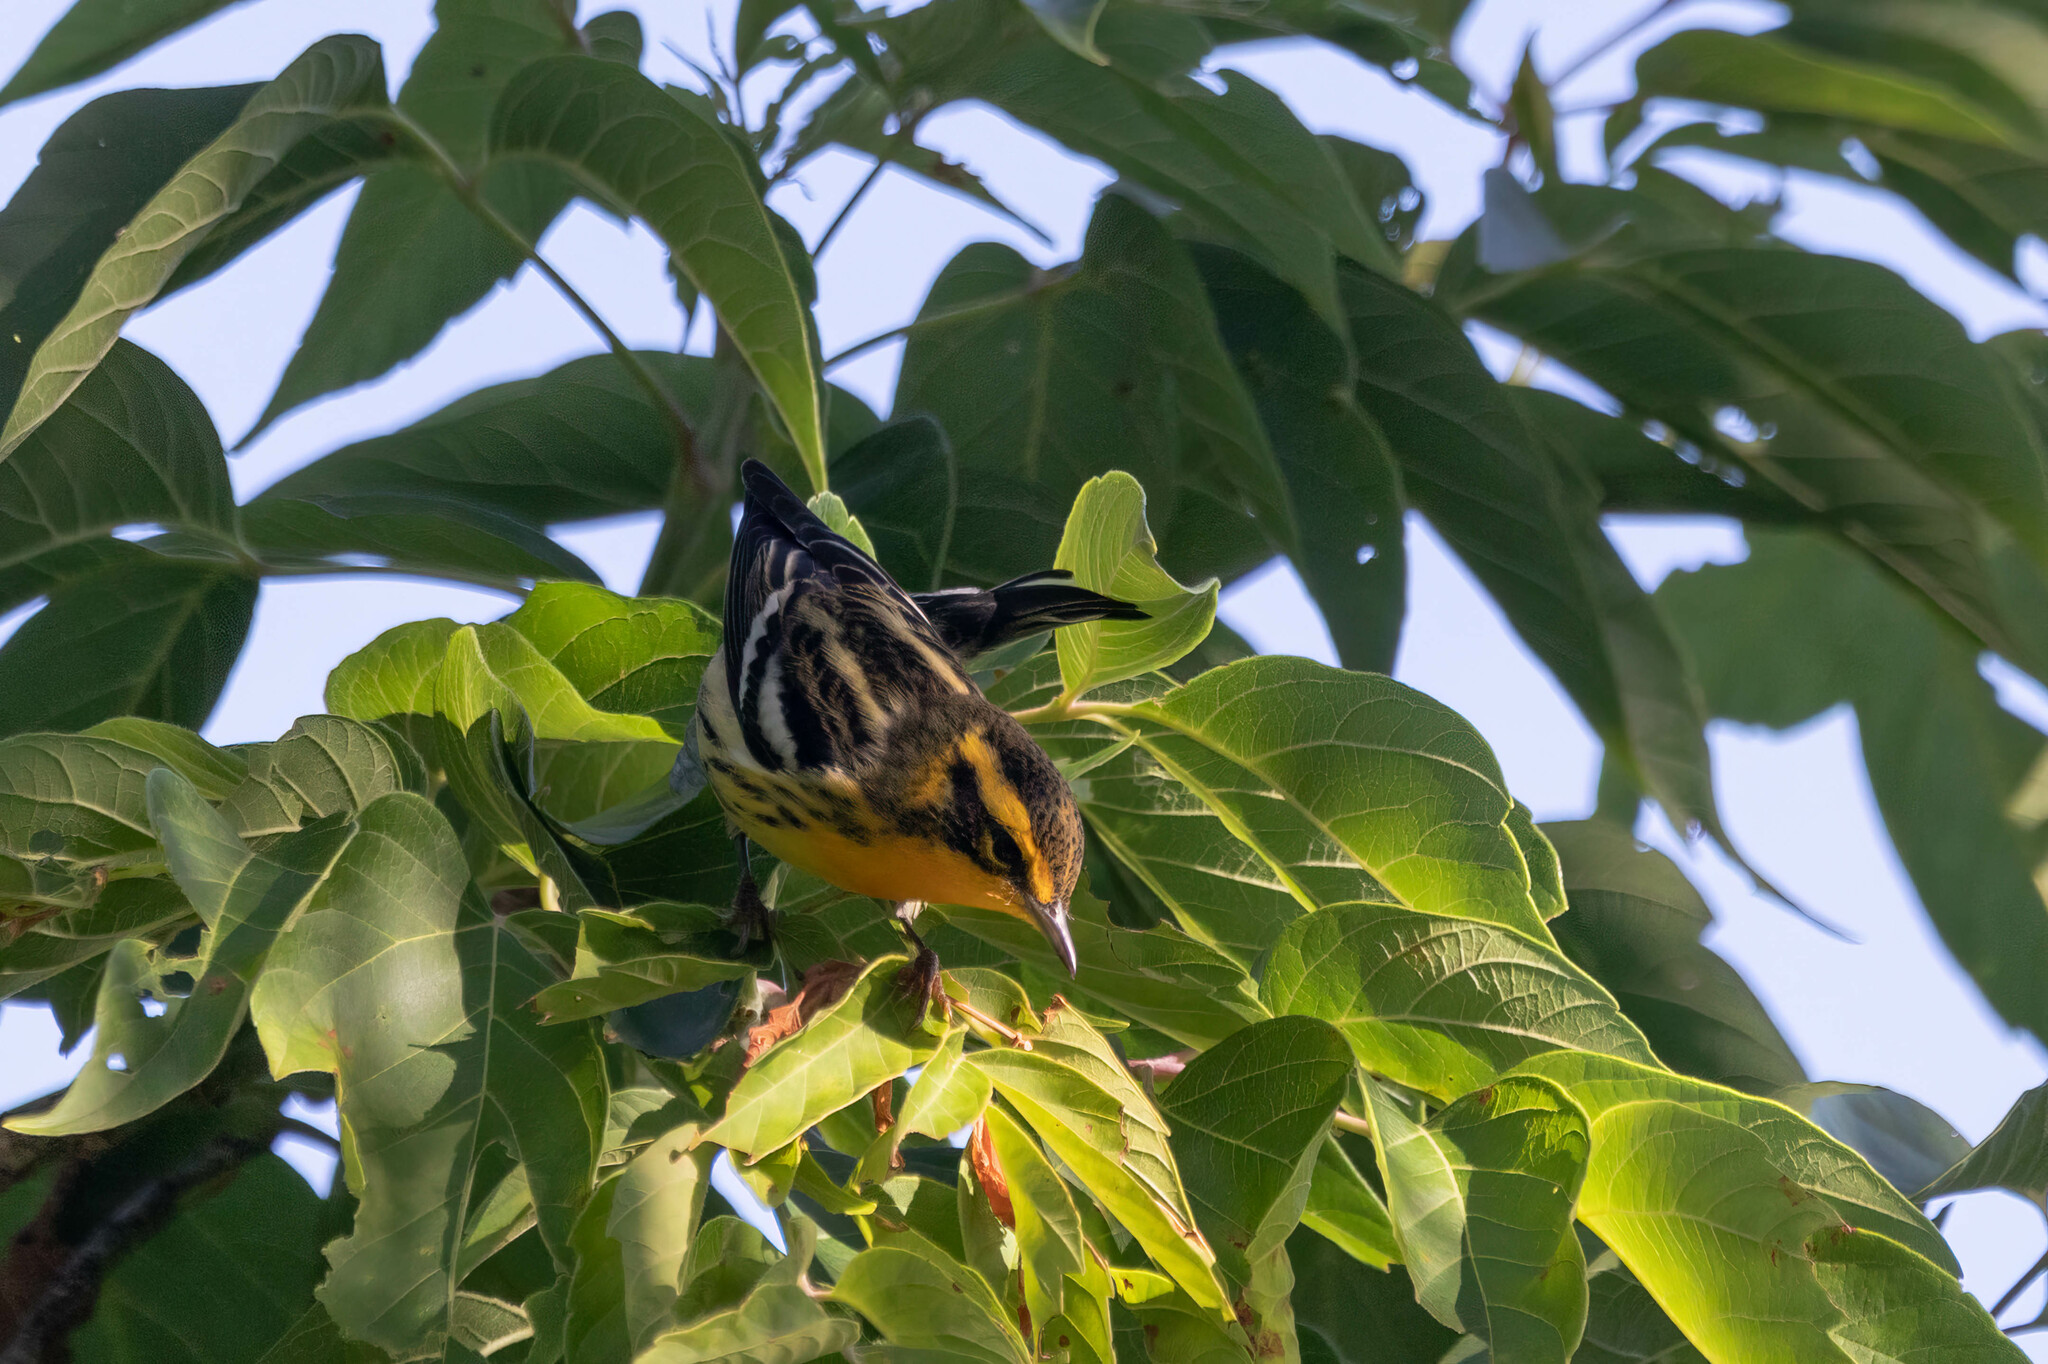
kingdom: Animalia
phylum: Chordata
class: Aves
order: Passeriformes
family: Parulidae
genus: Setophaga
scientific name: Setophaga fusca
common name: Blackburnian warbler
